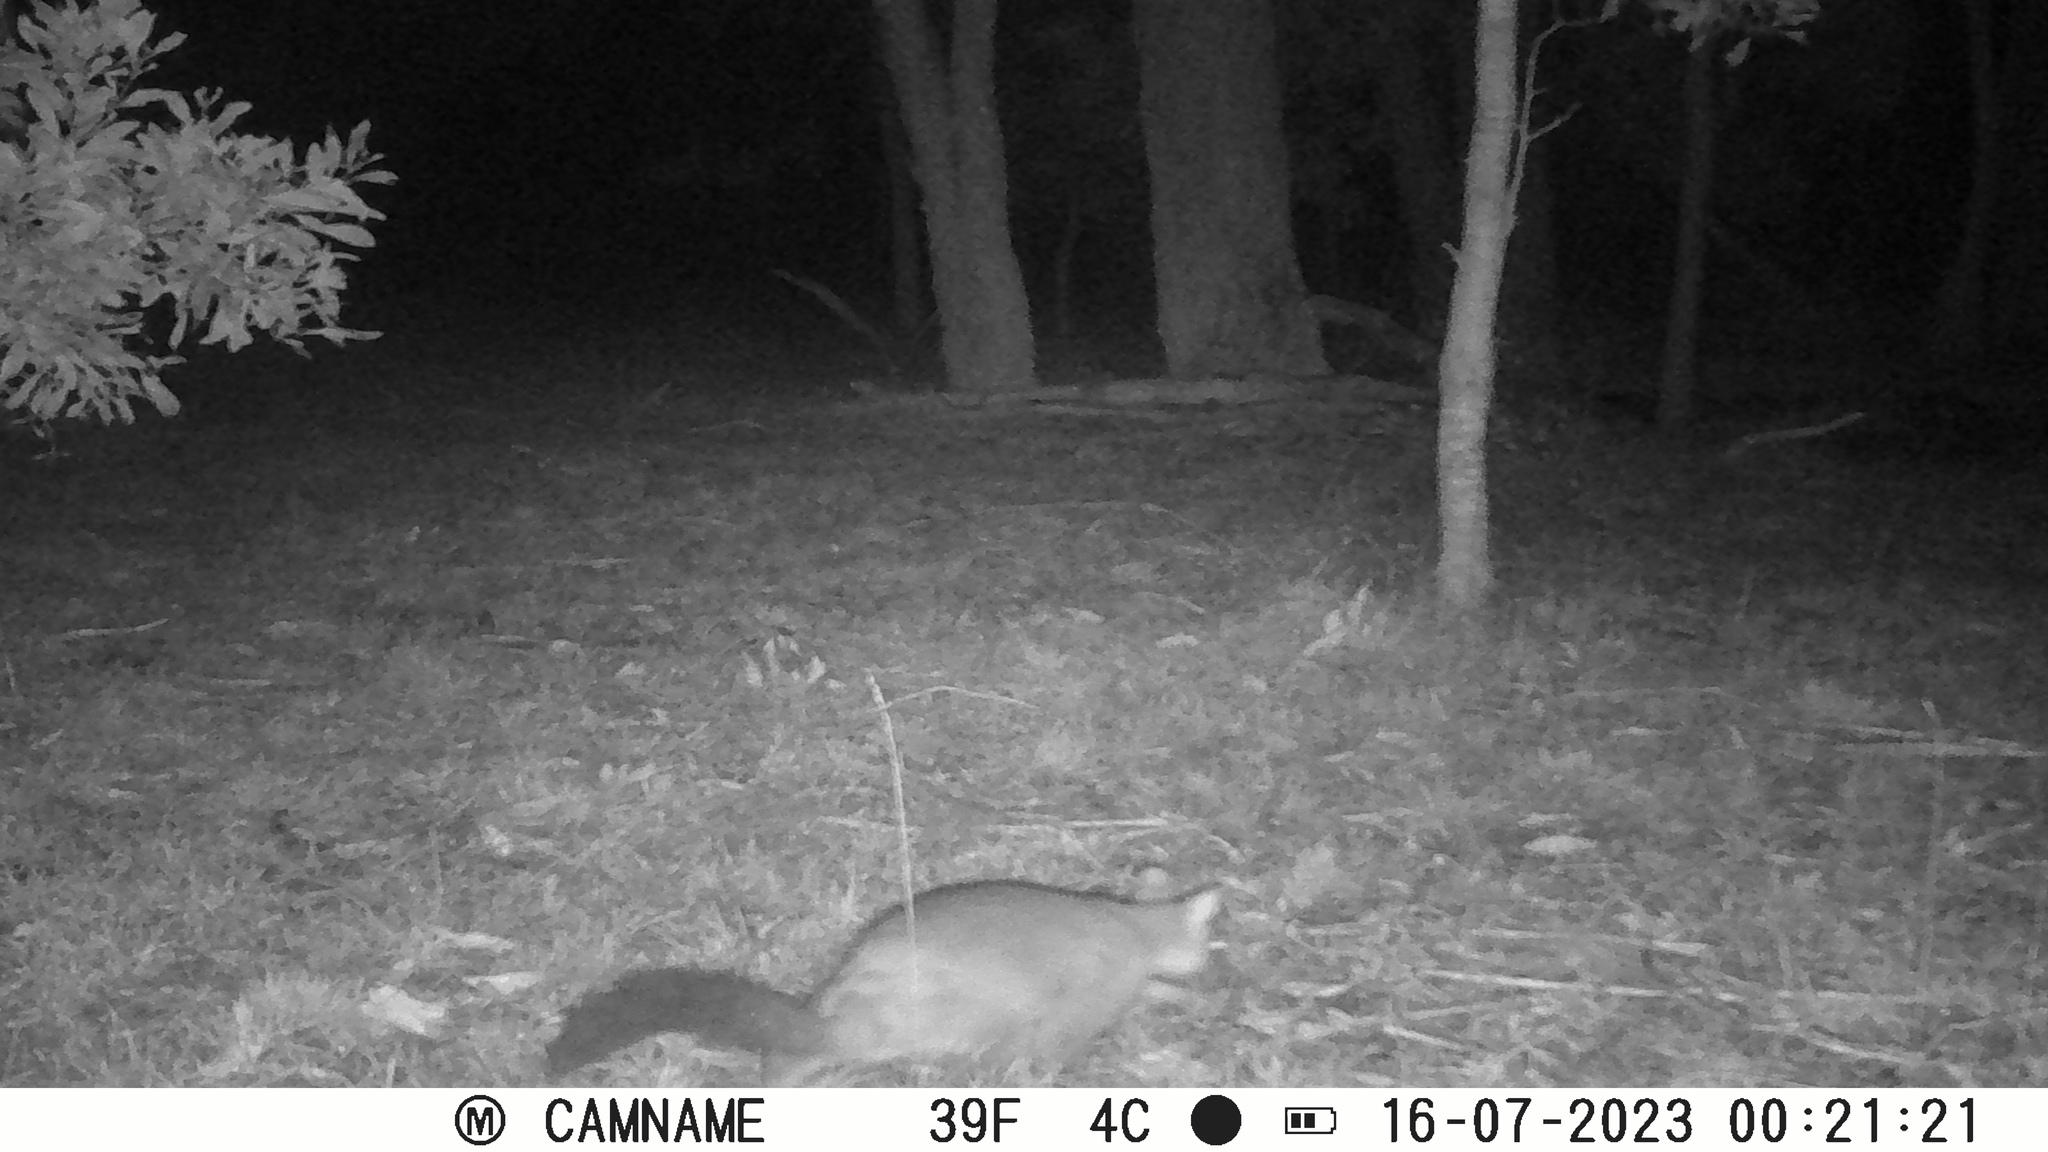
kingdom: Animalia
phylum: Chordata
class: Mammalia
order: Diprotodontia
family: Phalangeridae
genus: Trichosurus
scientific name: Trichosurus vulpecula
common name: Common brushtail
